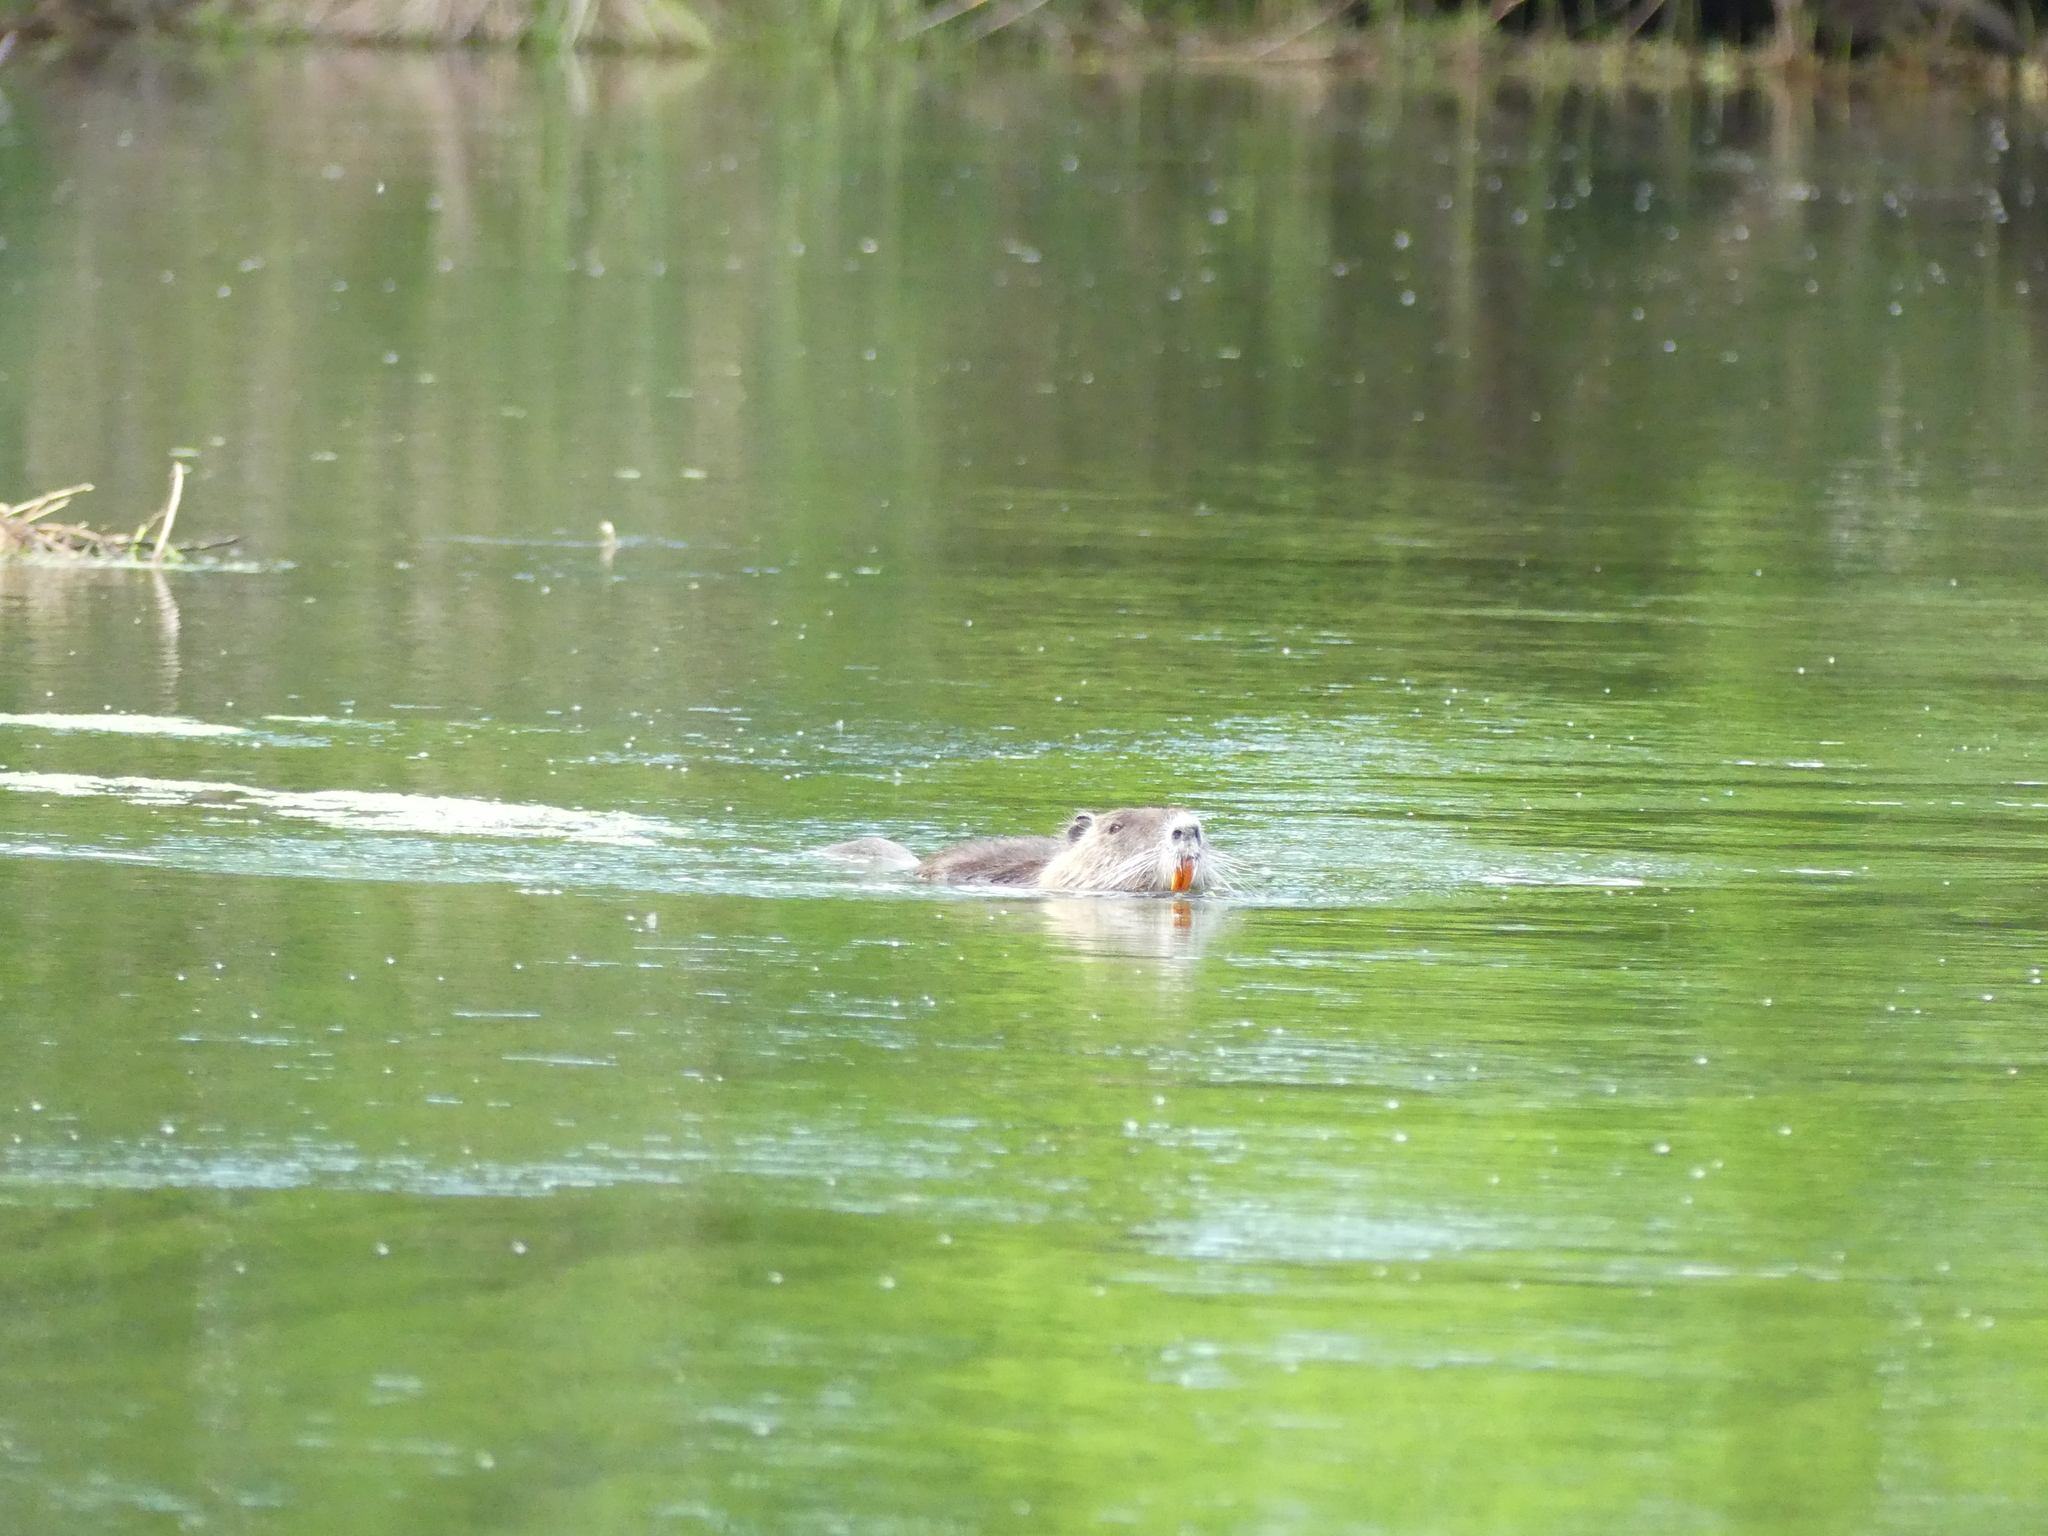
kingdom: Animalia
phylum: Chordata
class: Mammalia
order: Rodentia
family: Myocastoridae
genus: Myocastor
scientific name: Myocastor coypus
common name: Coypu
